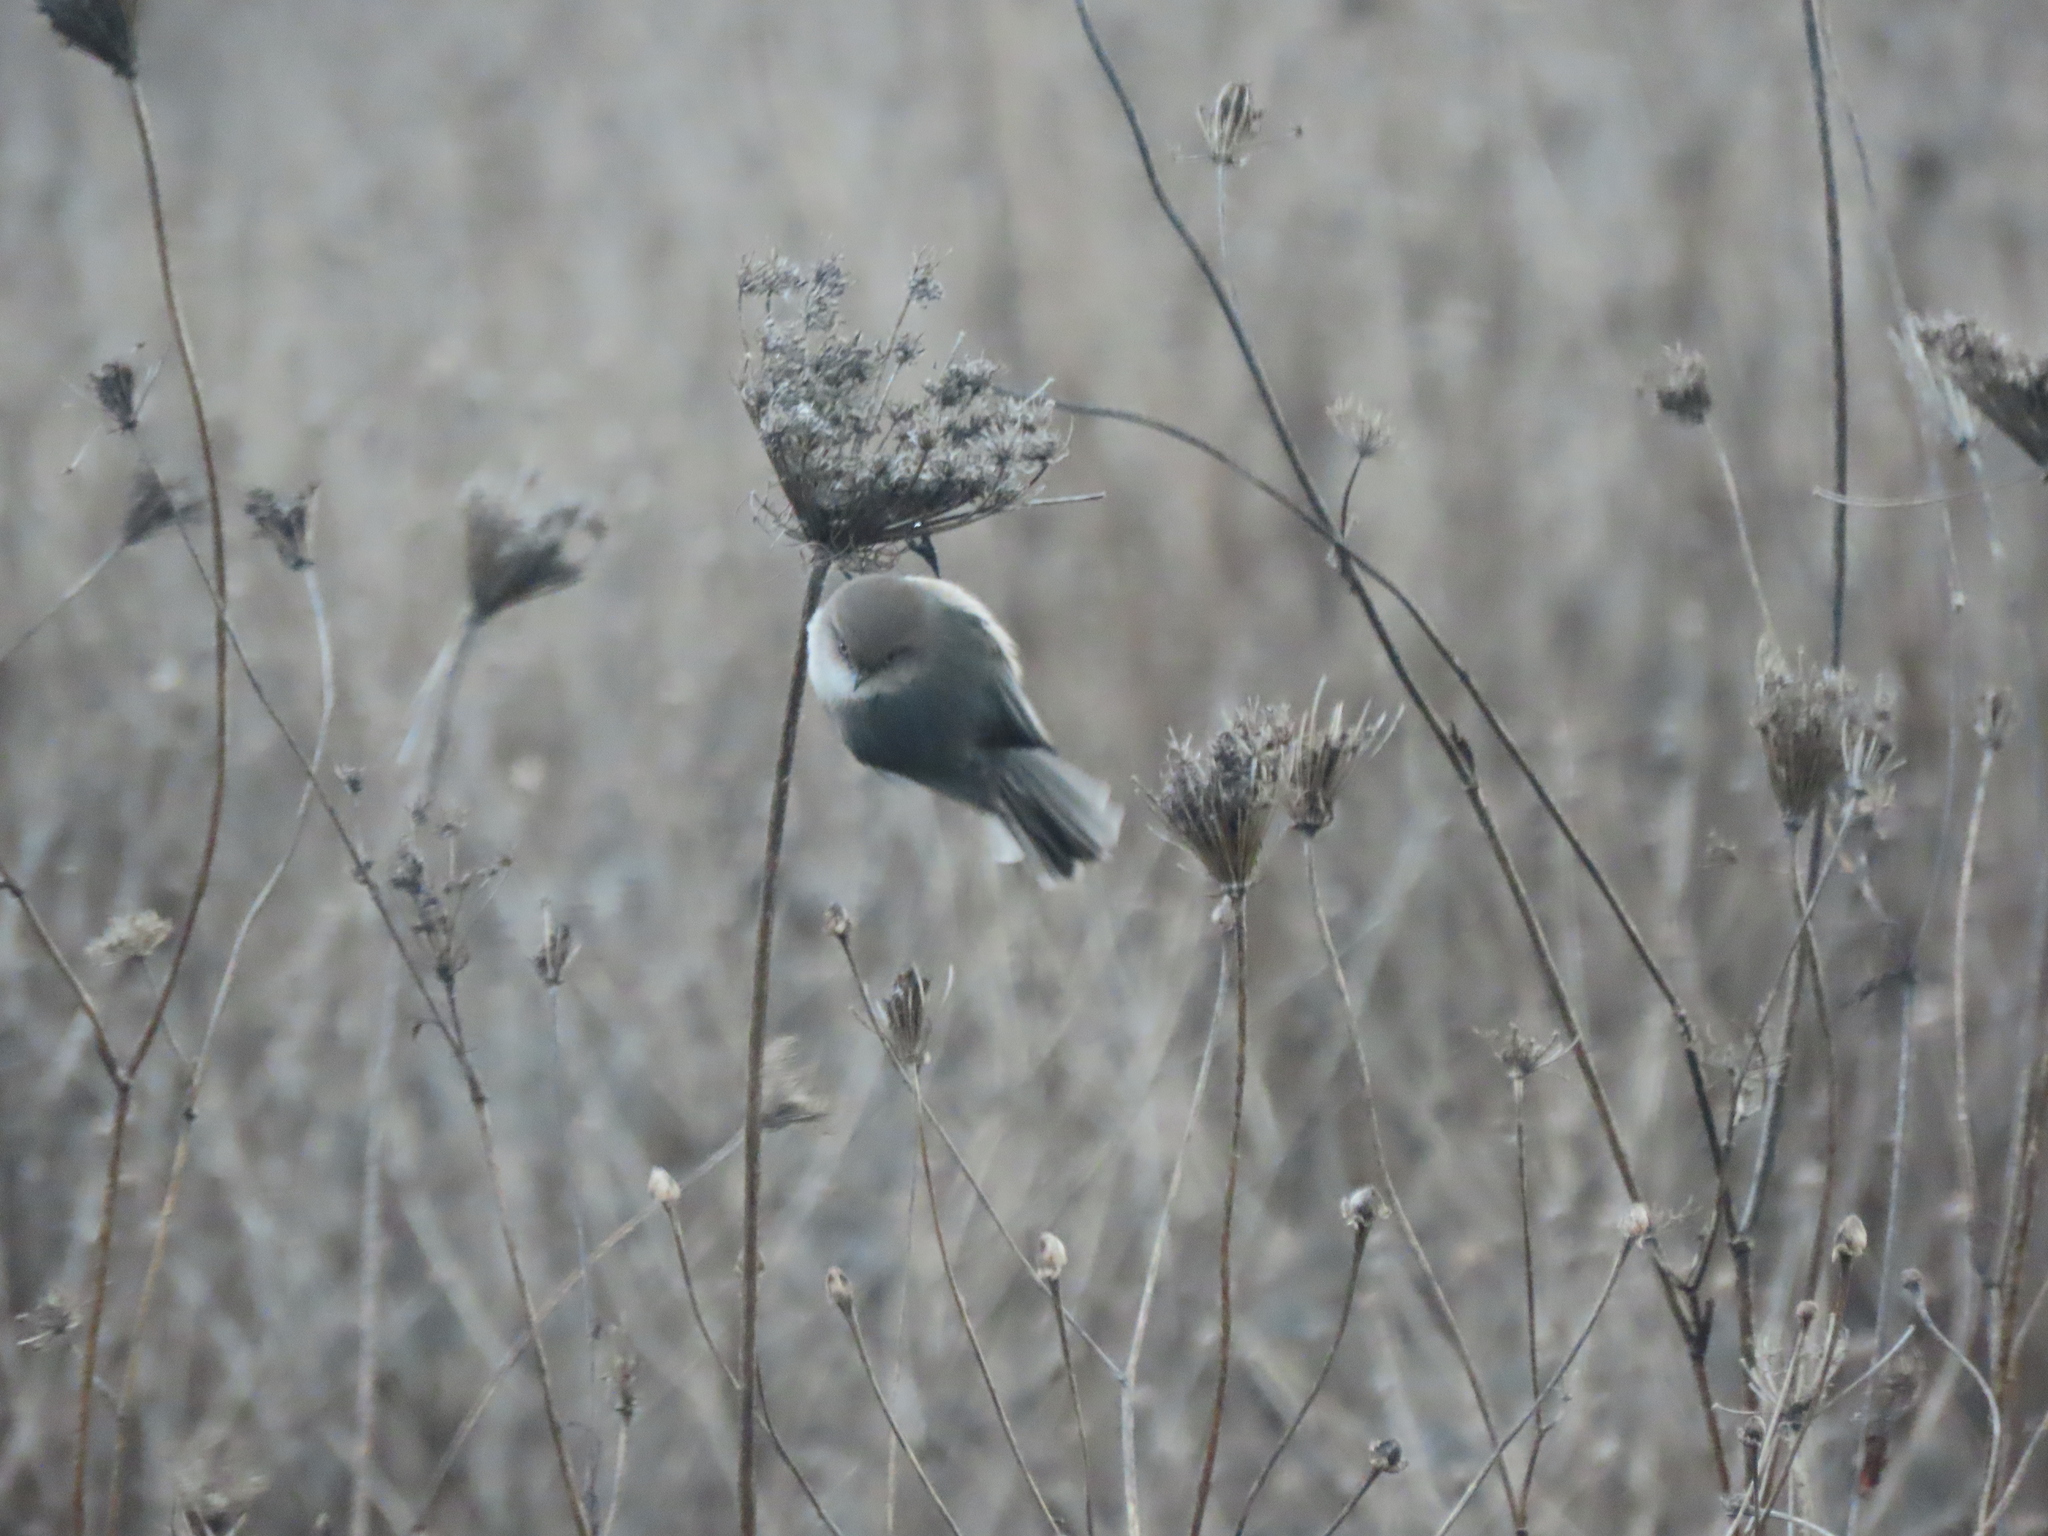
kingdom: Animalia
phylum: Chordata
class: Aves
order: Passeriformes
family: Aegithalidae
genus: Psaltriparus
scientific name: Psaltriparus minimus
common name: American bushtit
